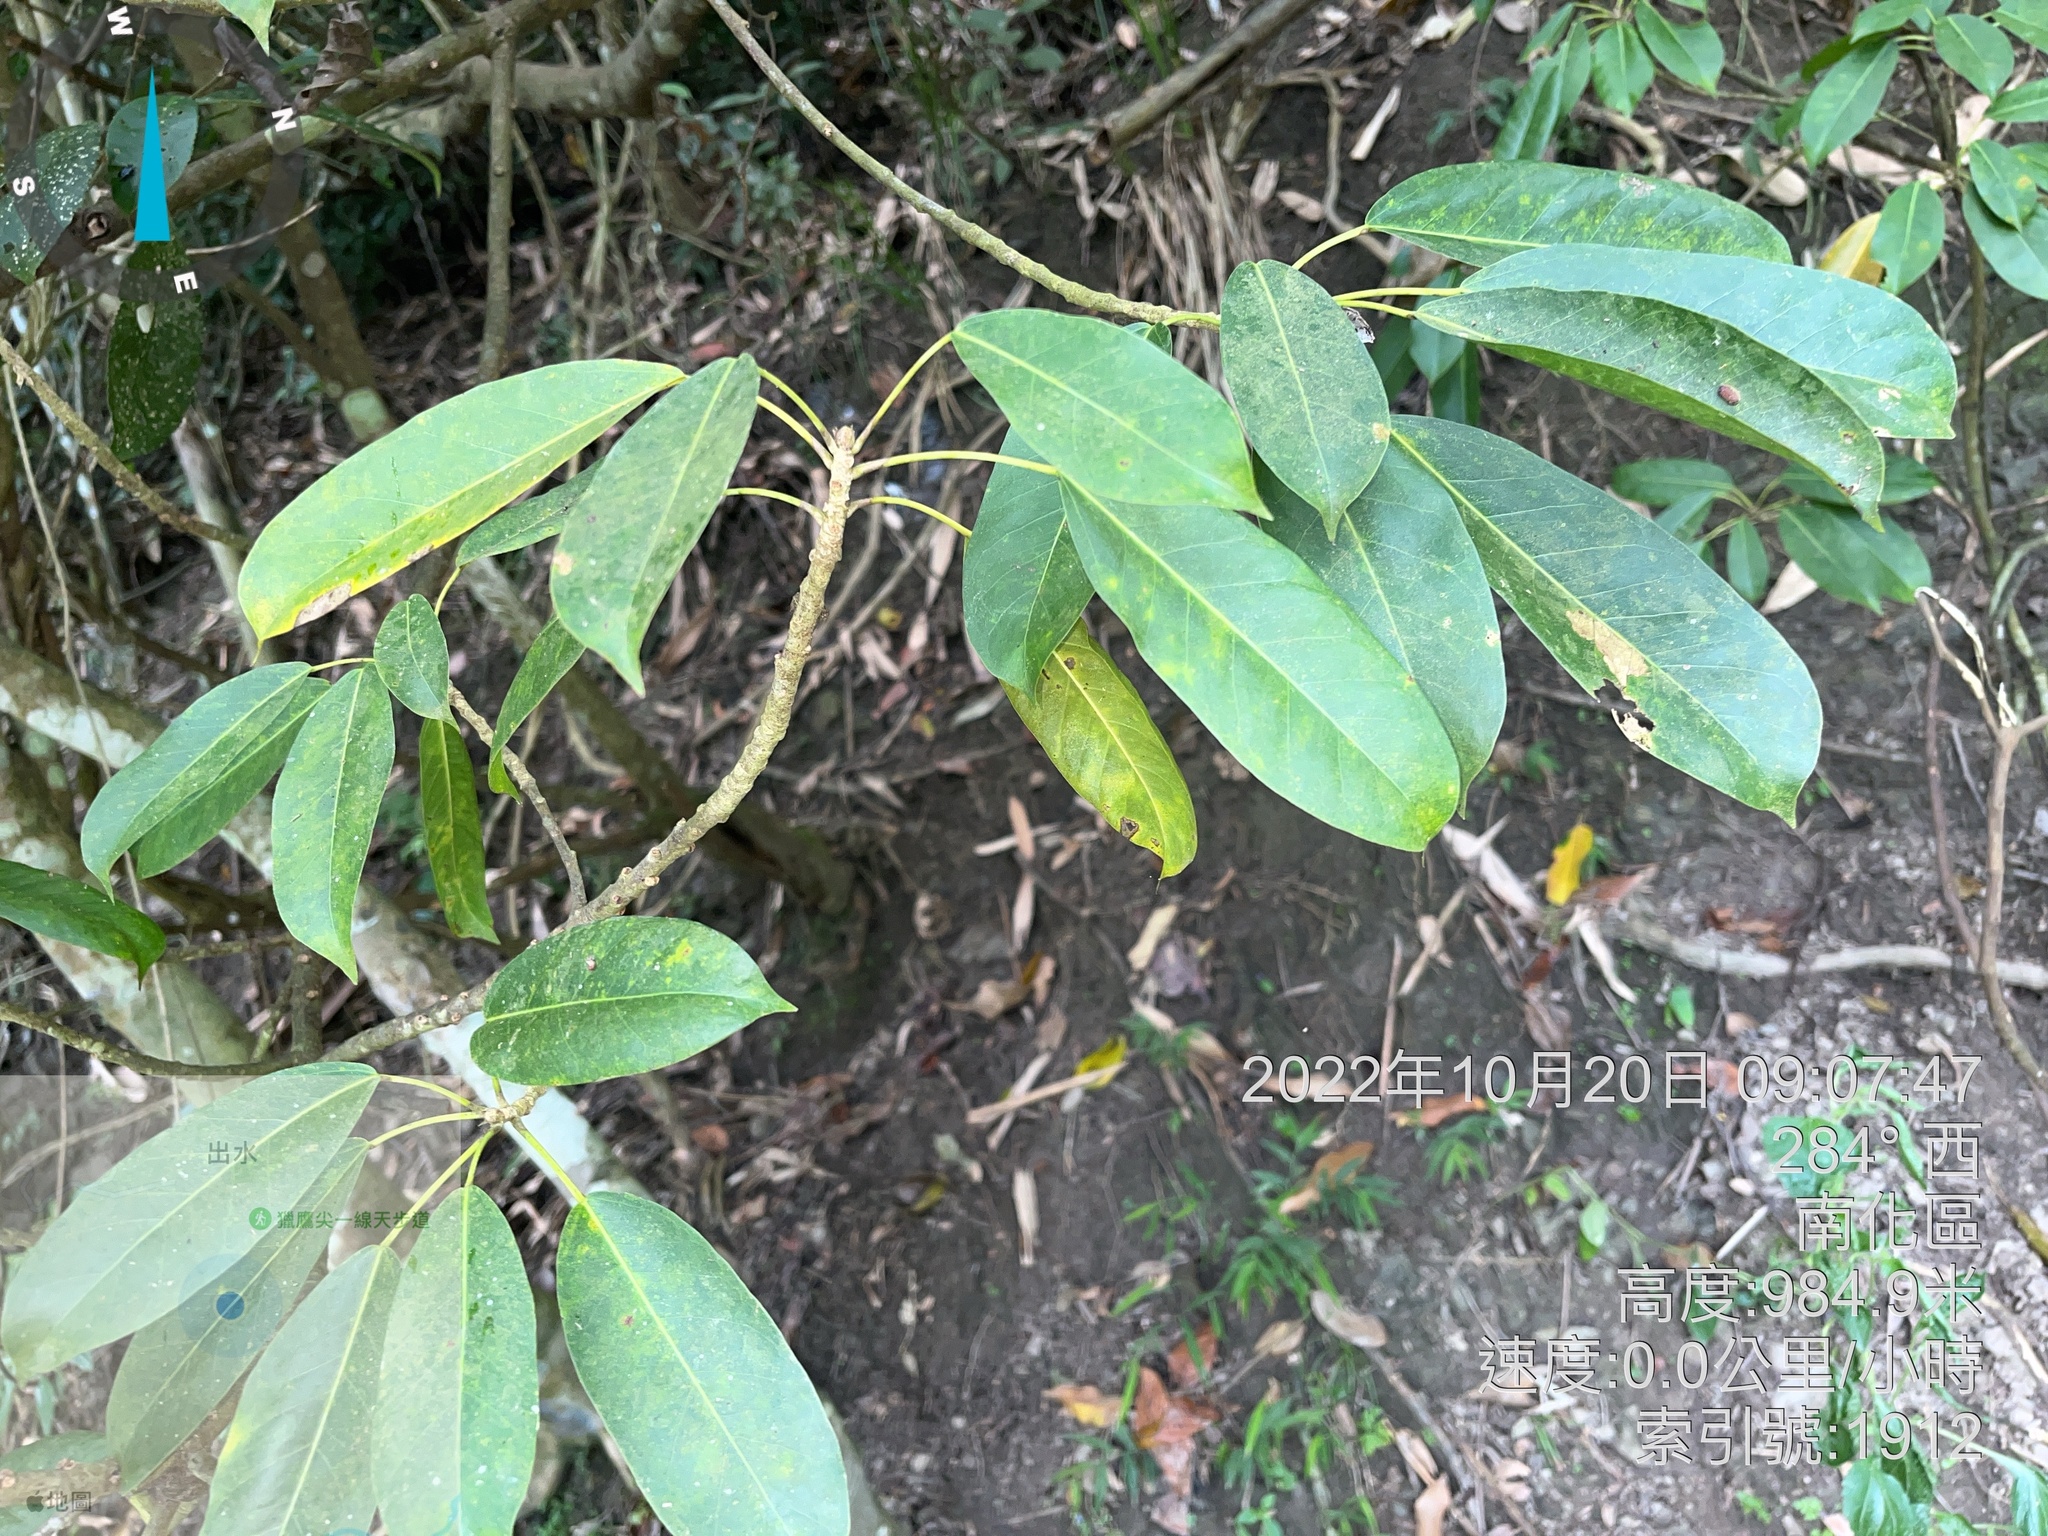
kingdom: Plantae
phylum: Tracheophyta
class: Magnoliopsida
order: Rosales
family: Moraceae
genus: Ficus
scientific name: Ficus subpisocarpa
